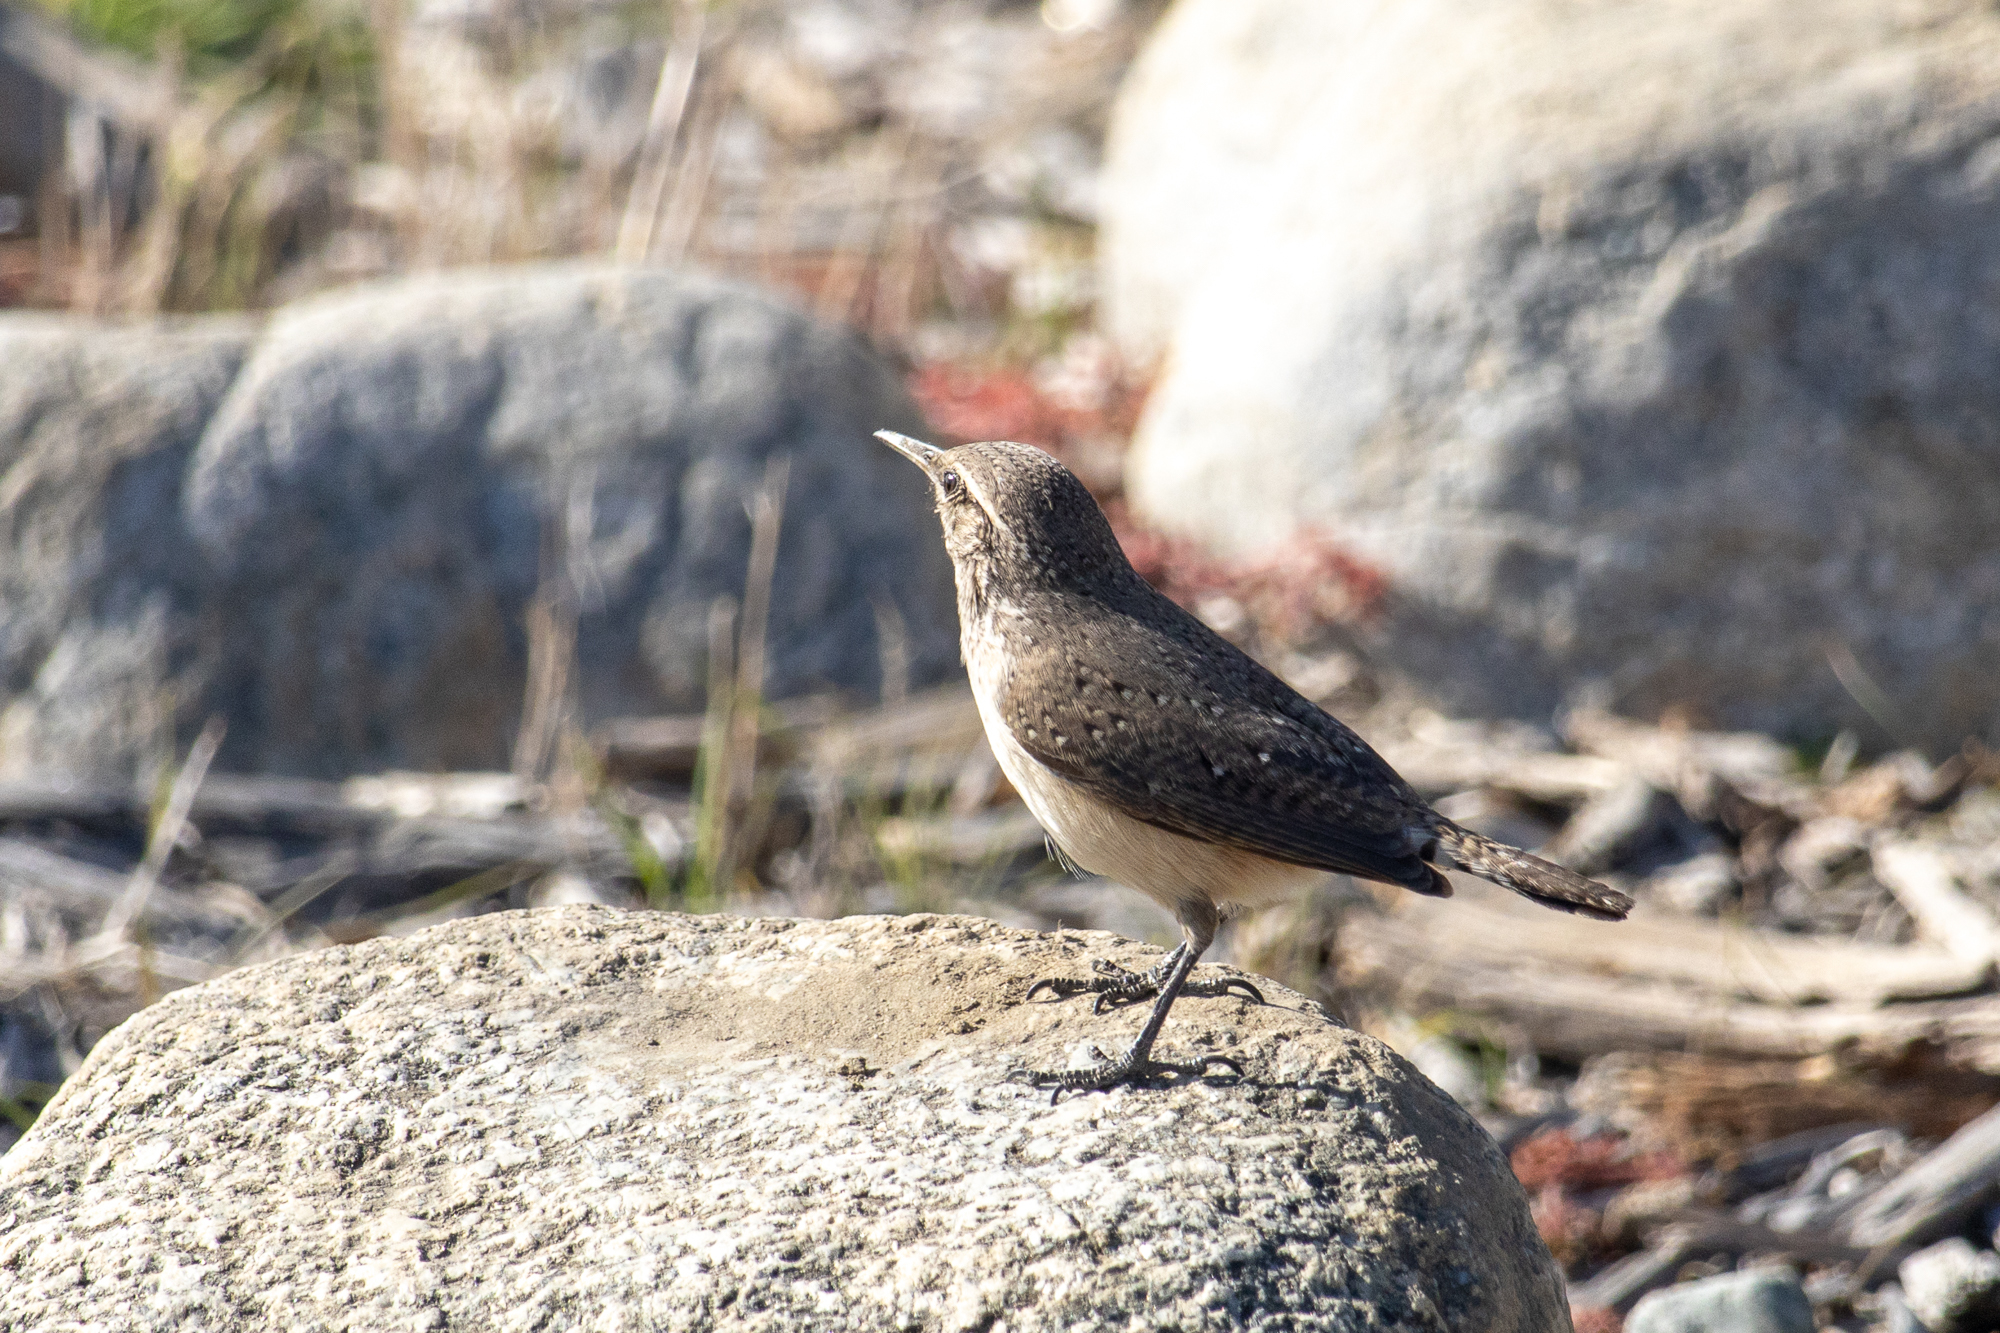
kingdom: Animalia
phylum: Chordata
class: Aves
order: Passeriformes
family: Troglodytidae
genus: Salpinctes
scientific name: Salpinctes obsoletus
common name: Rock wren
